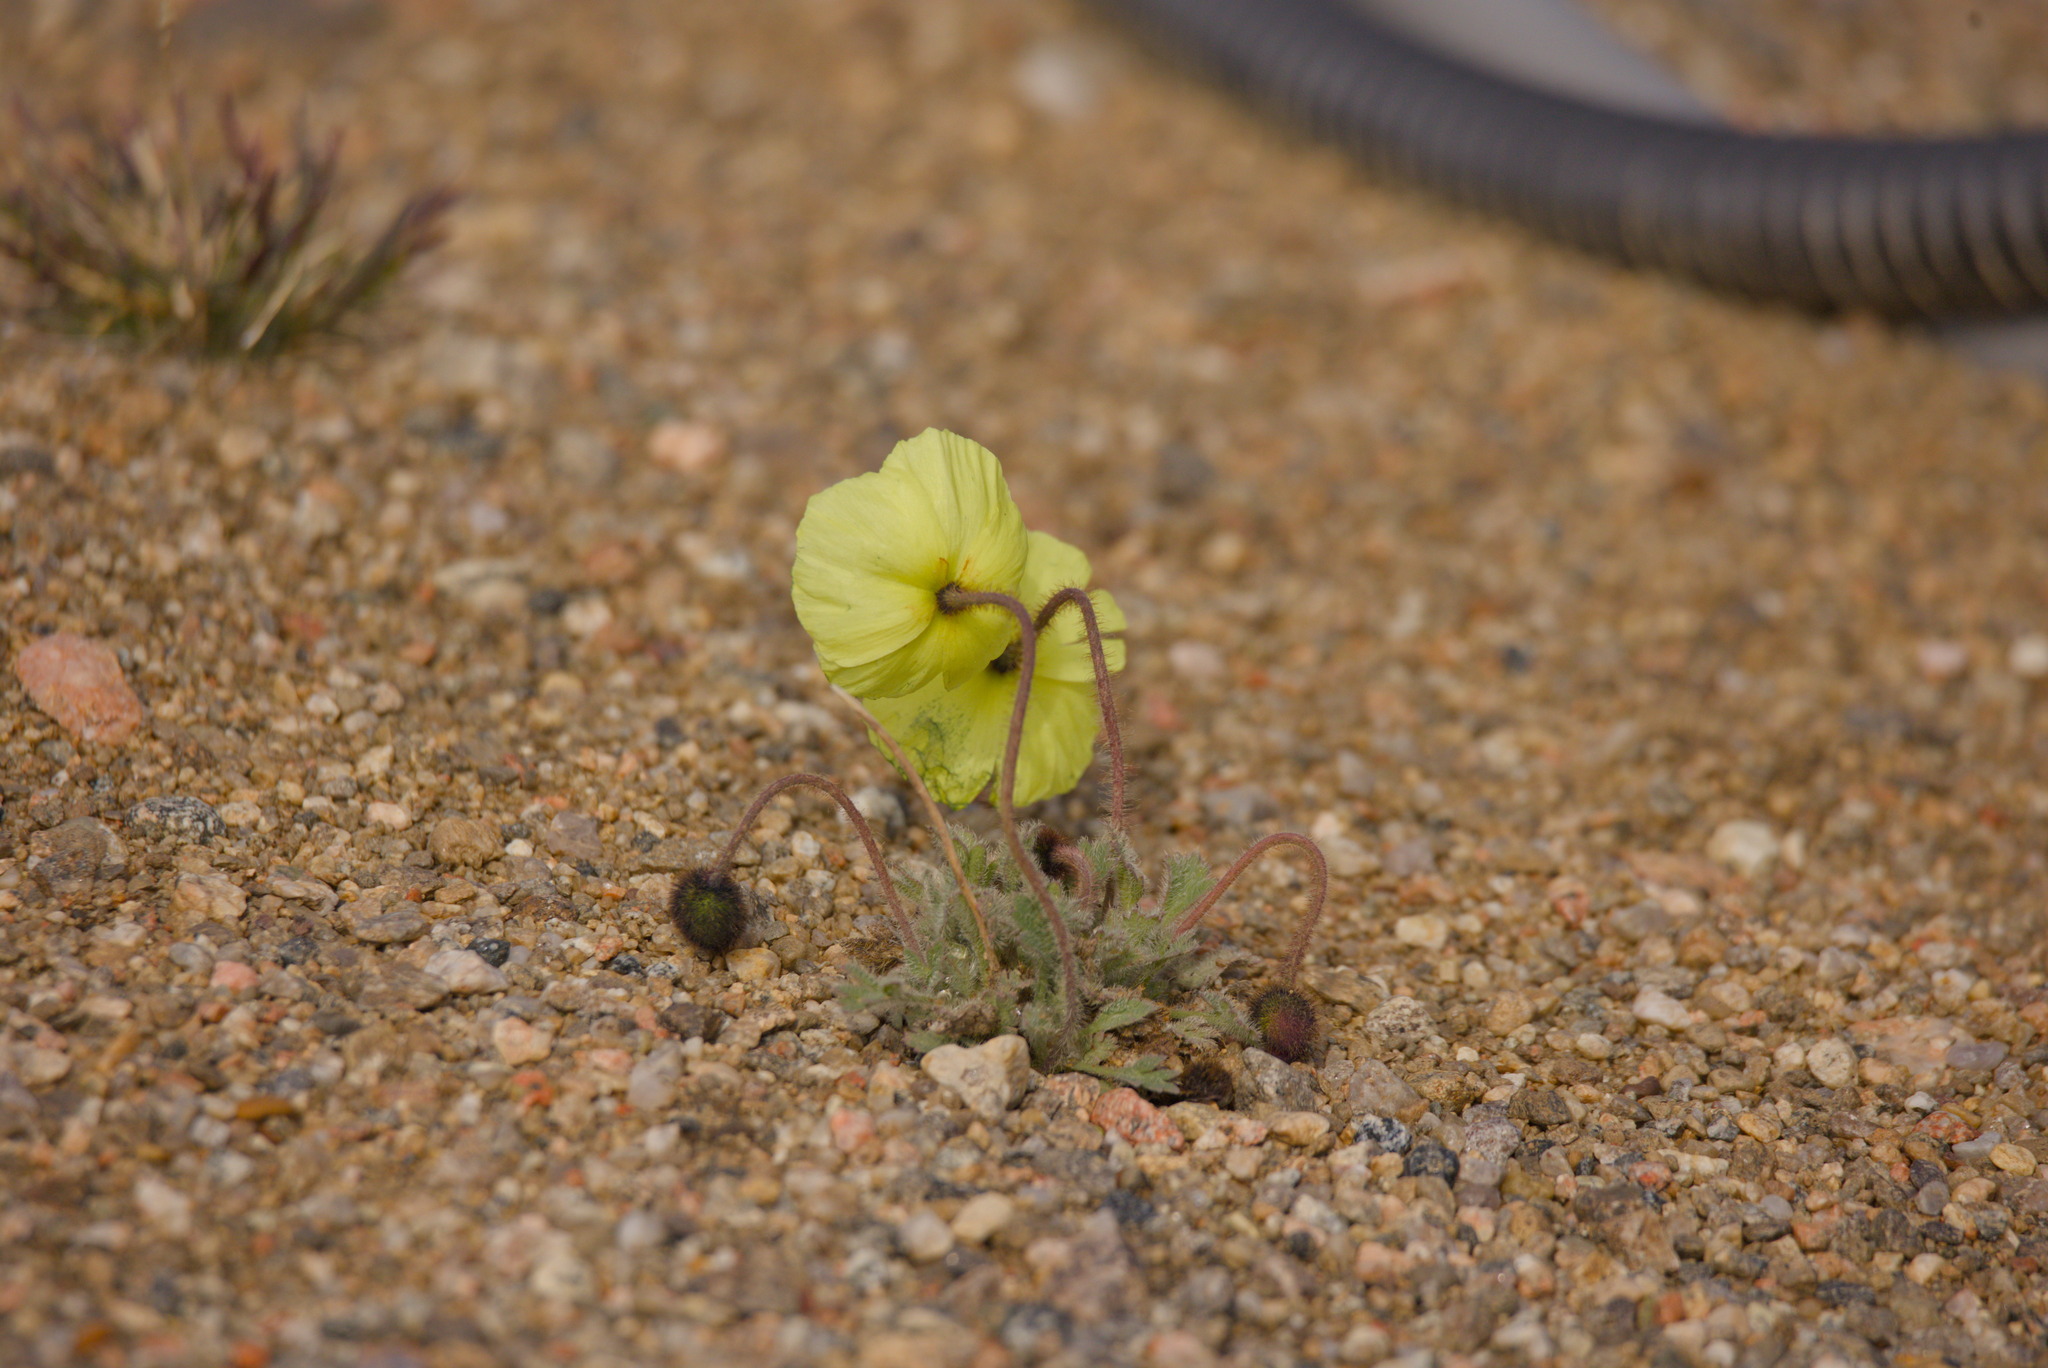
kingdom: Plantae
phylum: Tracheophyta
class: Magnoliopsida
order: Ranunculales
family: Papaveraceae
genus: Papaver
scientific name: Papaver radicatum
